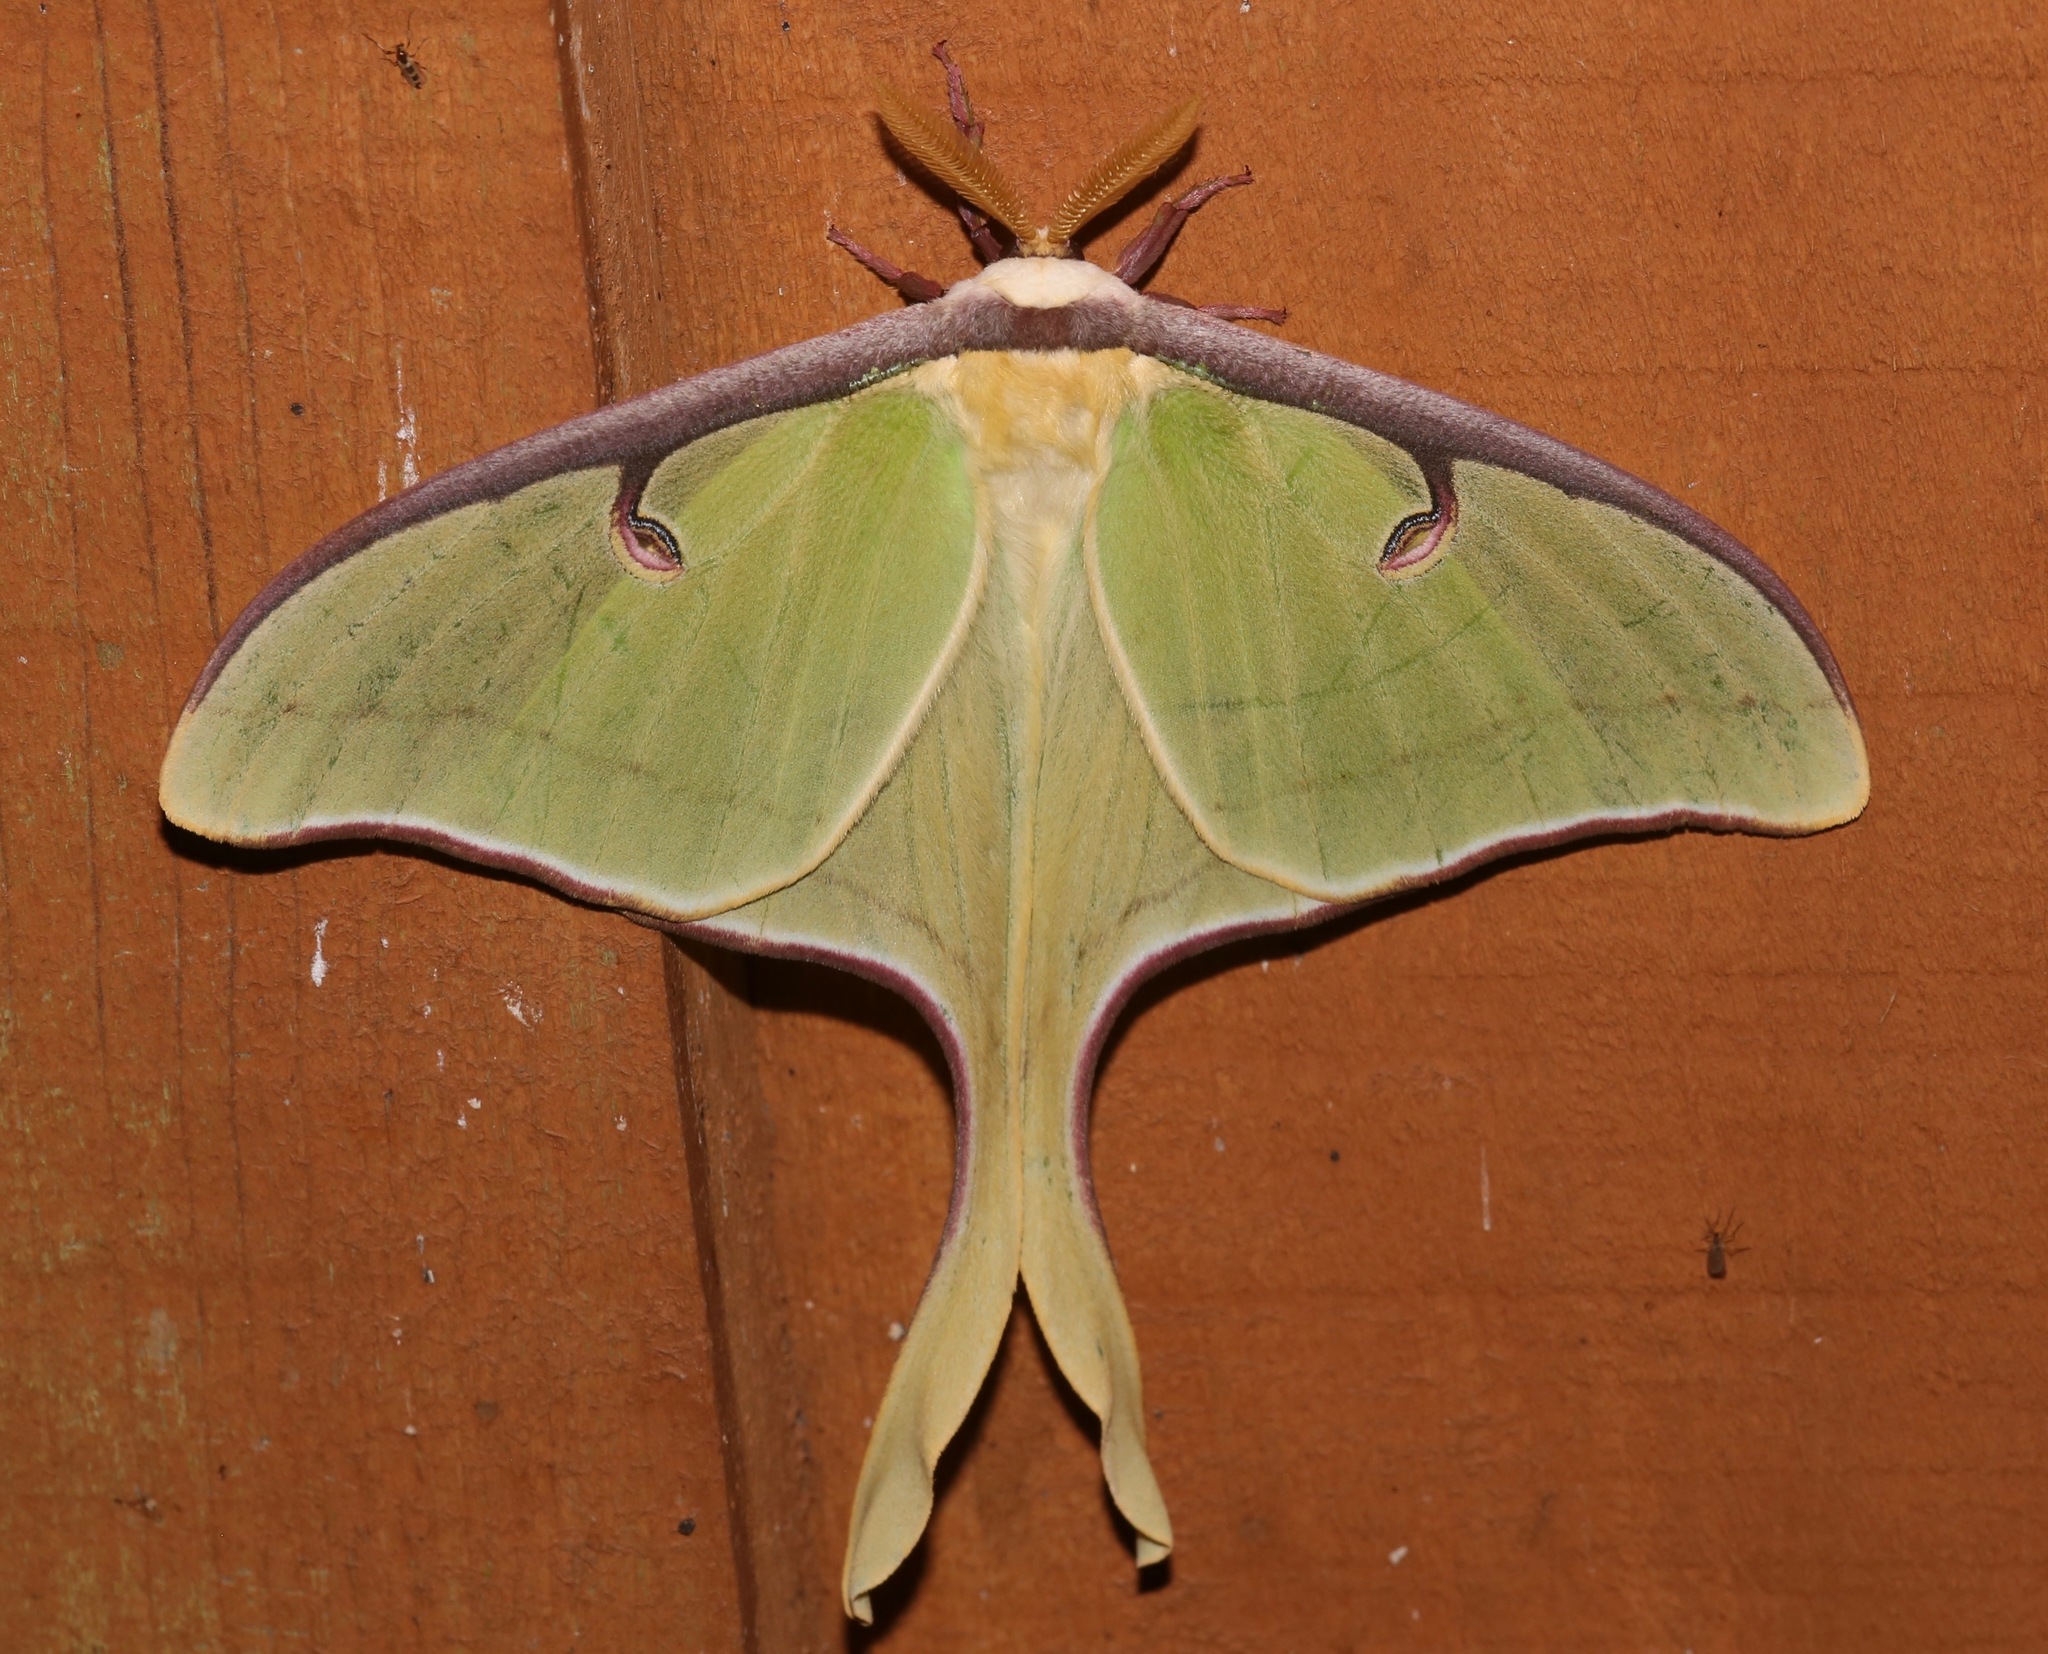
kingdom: Animalia
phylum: Arthropoda
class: Insecta
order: Lepidoptera
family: Saturniidae
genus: Actias
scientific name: Actias luna
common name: Luna moth
